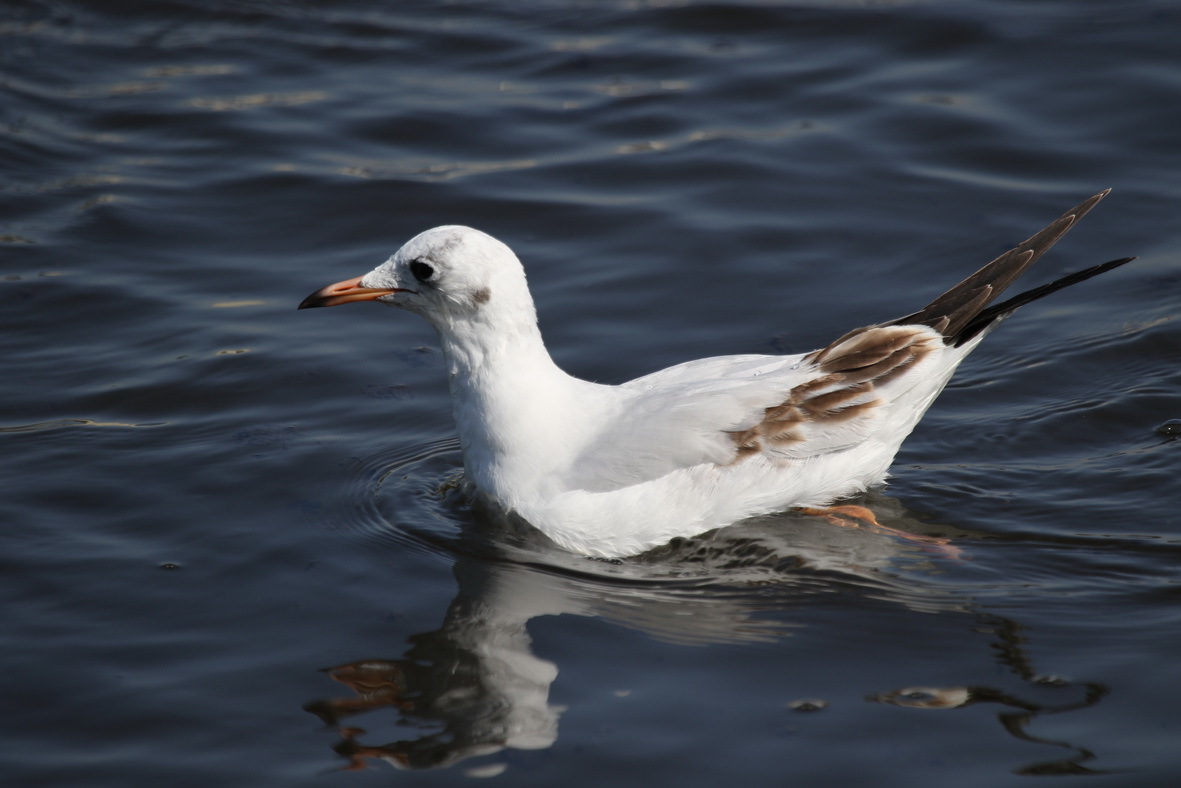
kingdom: Animalia
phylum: Chordata
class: Aves
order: Charadriiformes
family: Laridae
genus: Chroicocephalus
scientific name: Chroicocephalus ridibundus
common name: Black-headed gull
